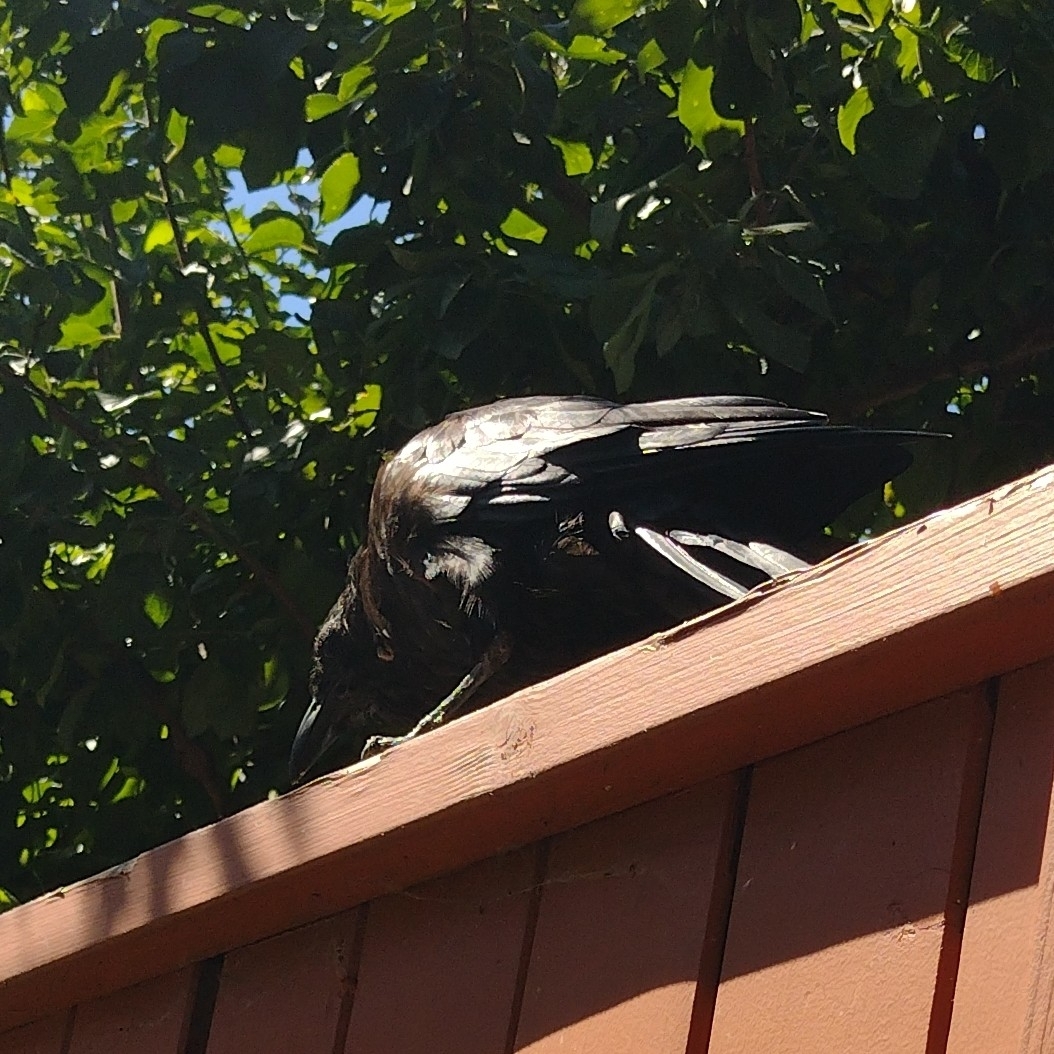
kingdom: Animalia
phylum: Chordata
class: Aves
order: Passeriformes
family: Corvidae
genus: Corvus
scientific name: Corvus brachyrhynchos
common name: American crow
